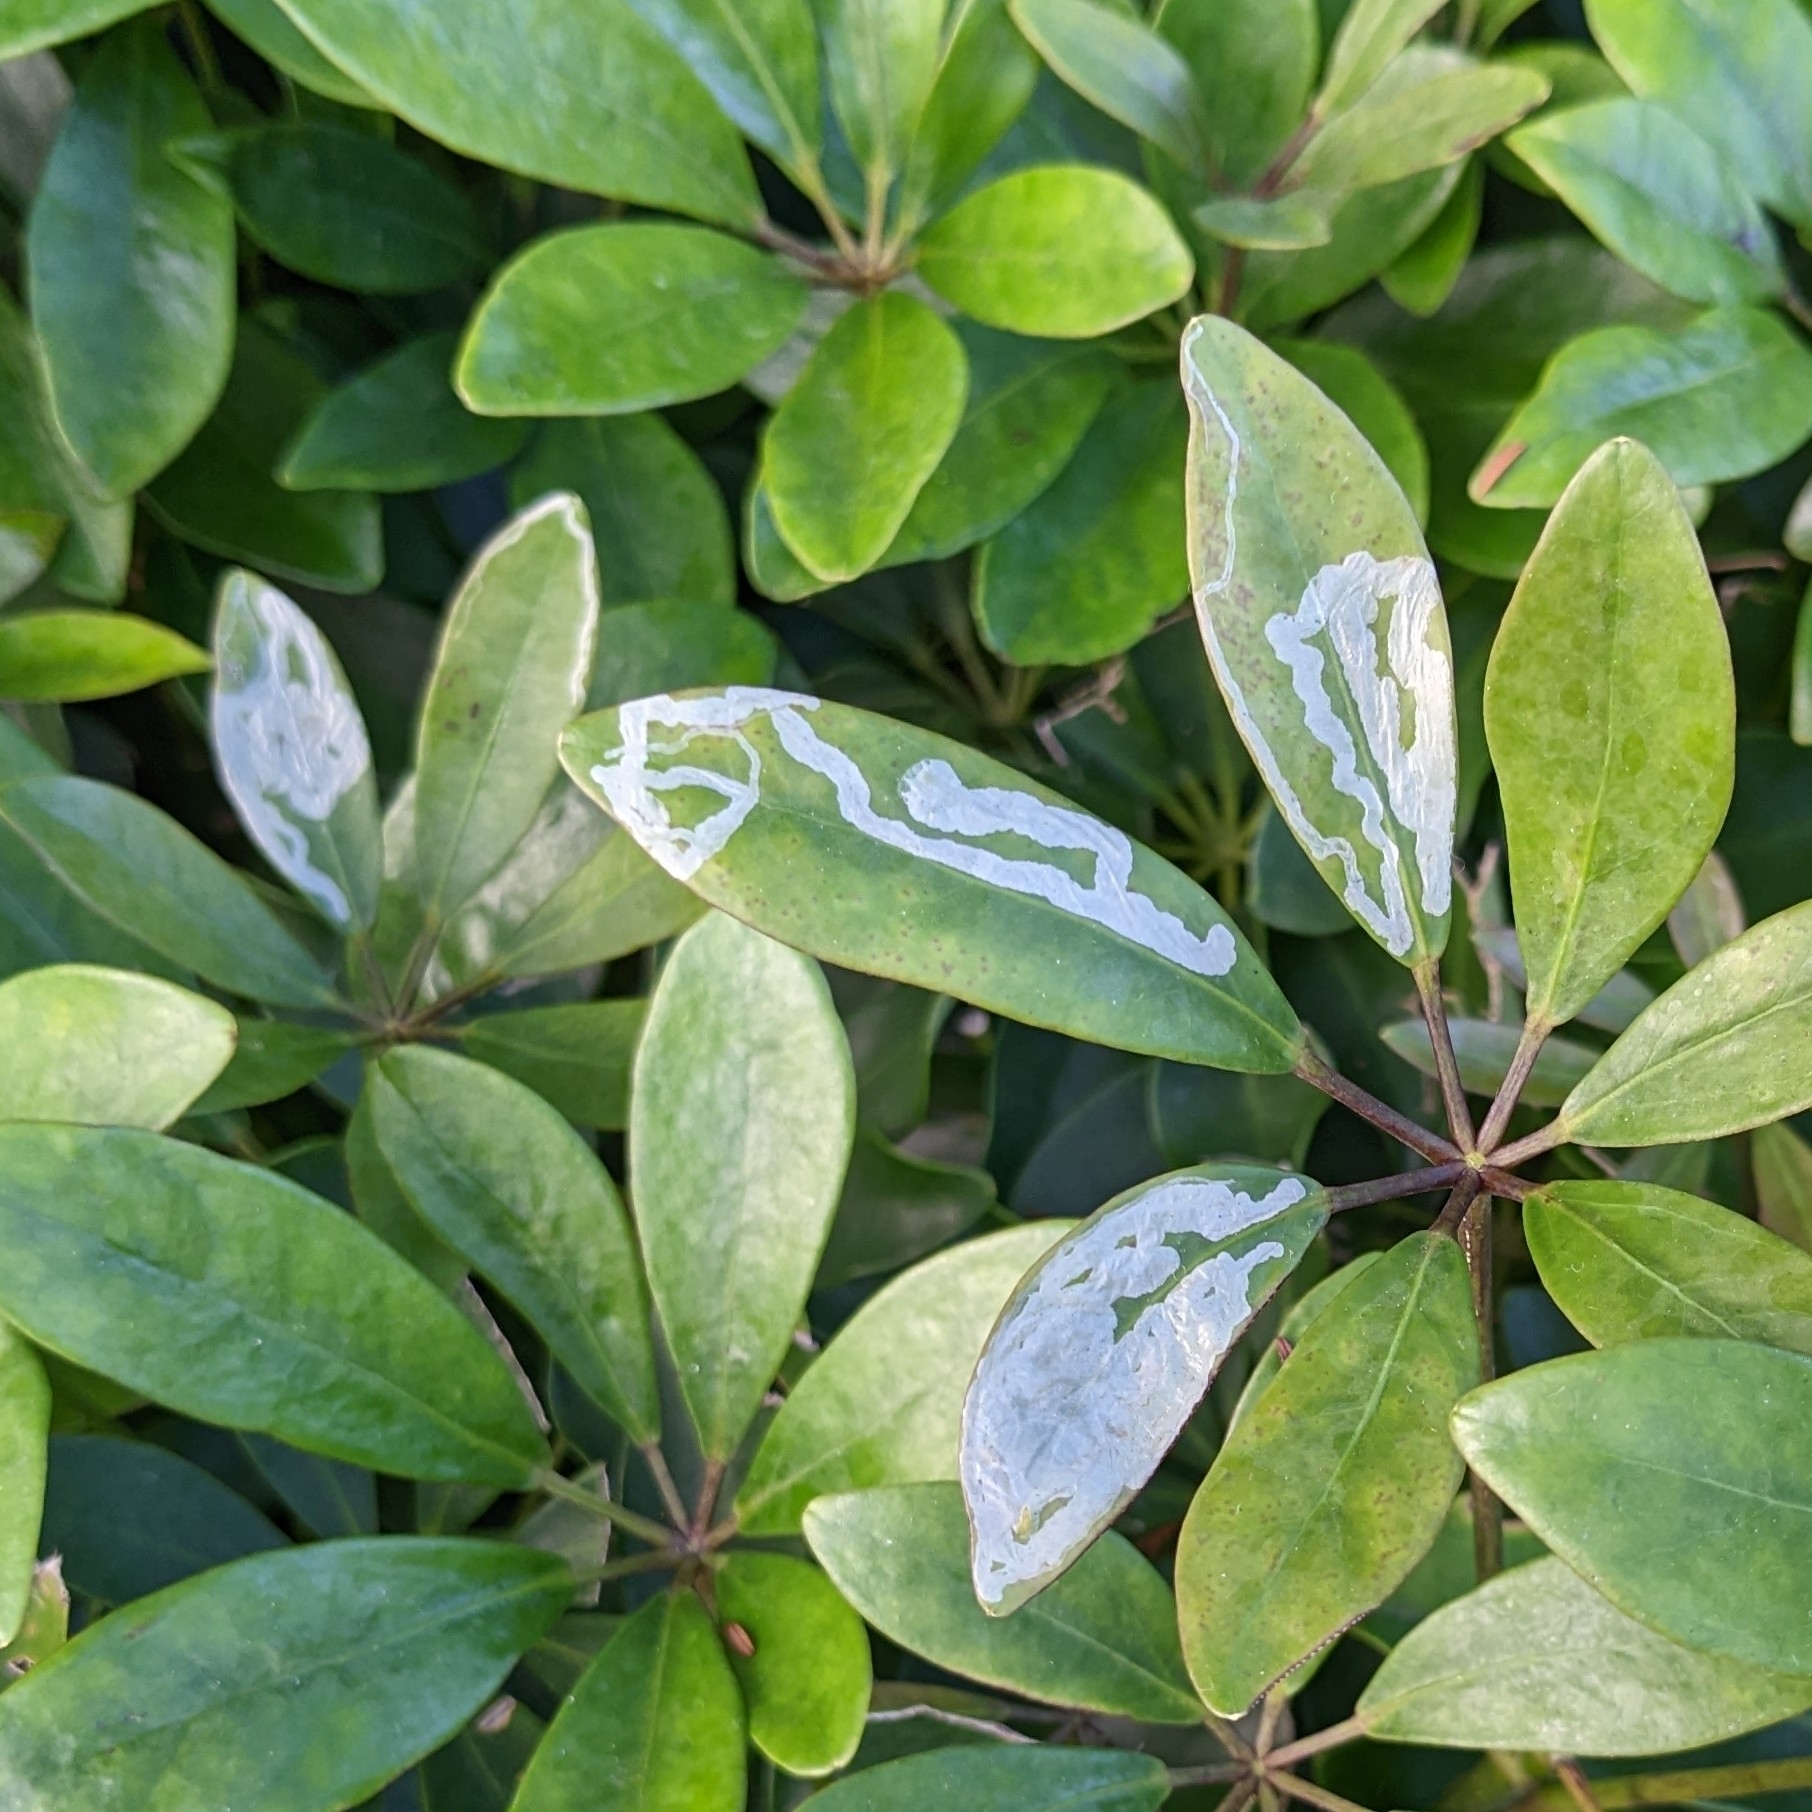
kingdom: Animalia
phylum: Arthropoda
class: Insecta
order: Diptera
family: Agromyzidae
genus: Liriomyza
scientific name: Liriomyza schmidti
